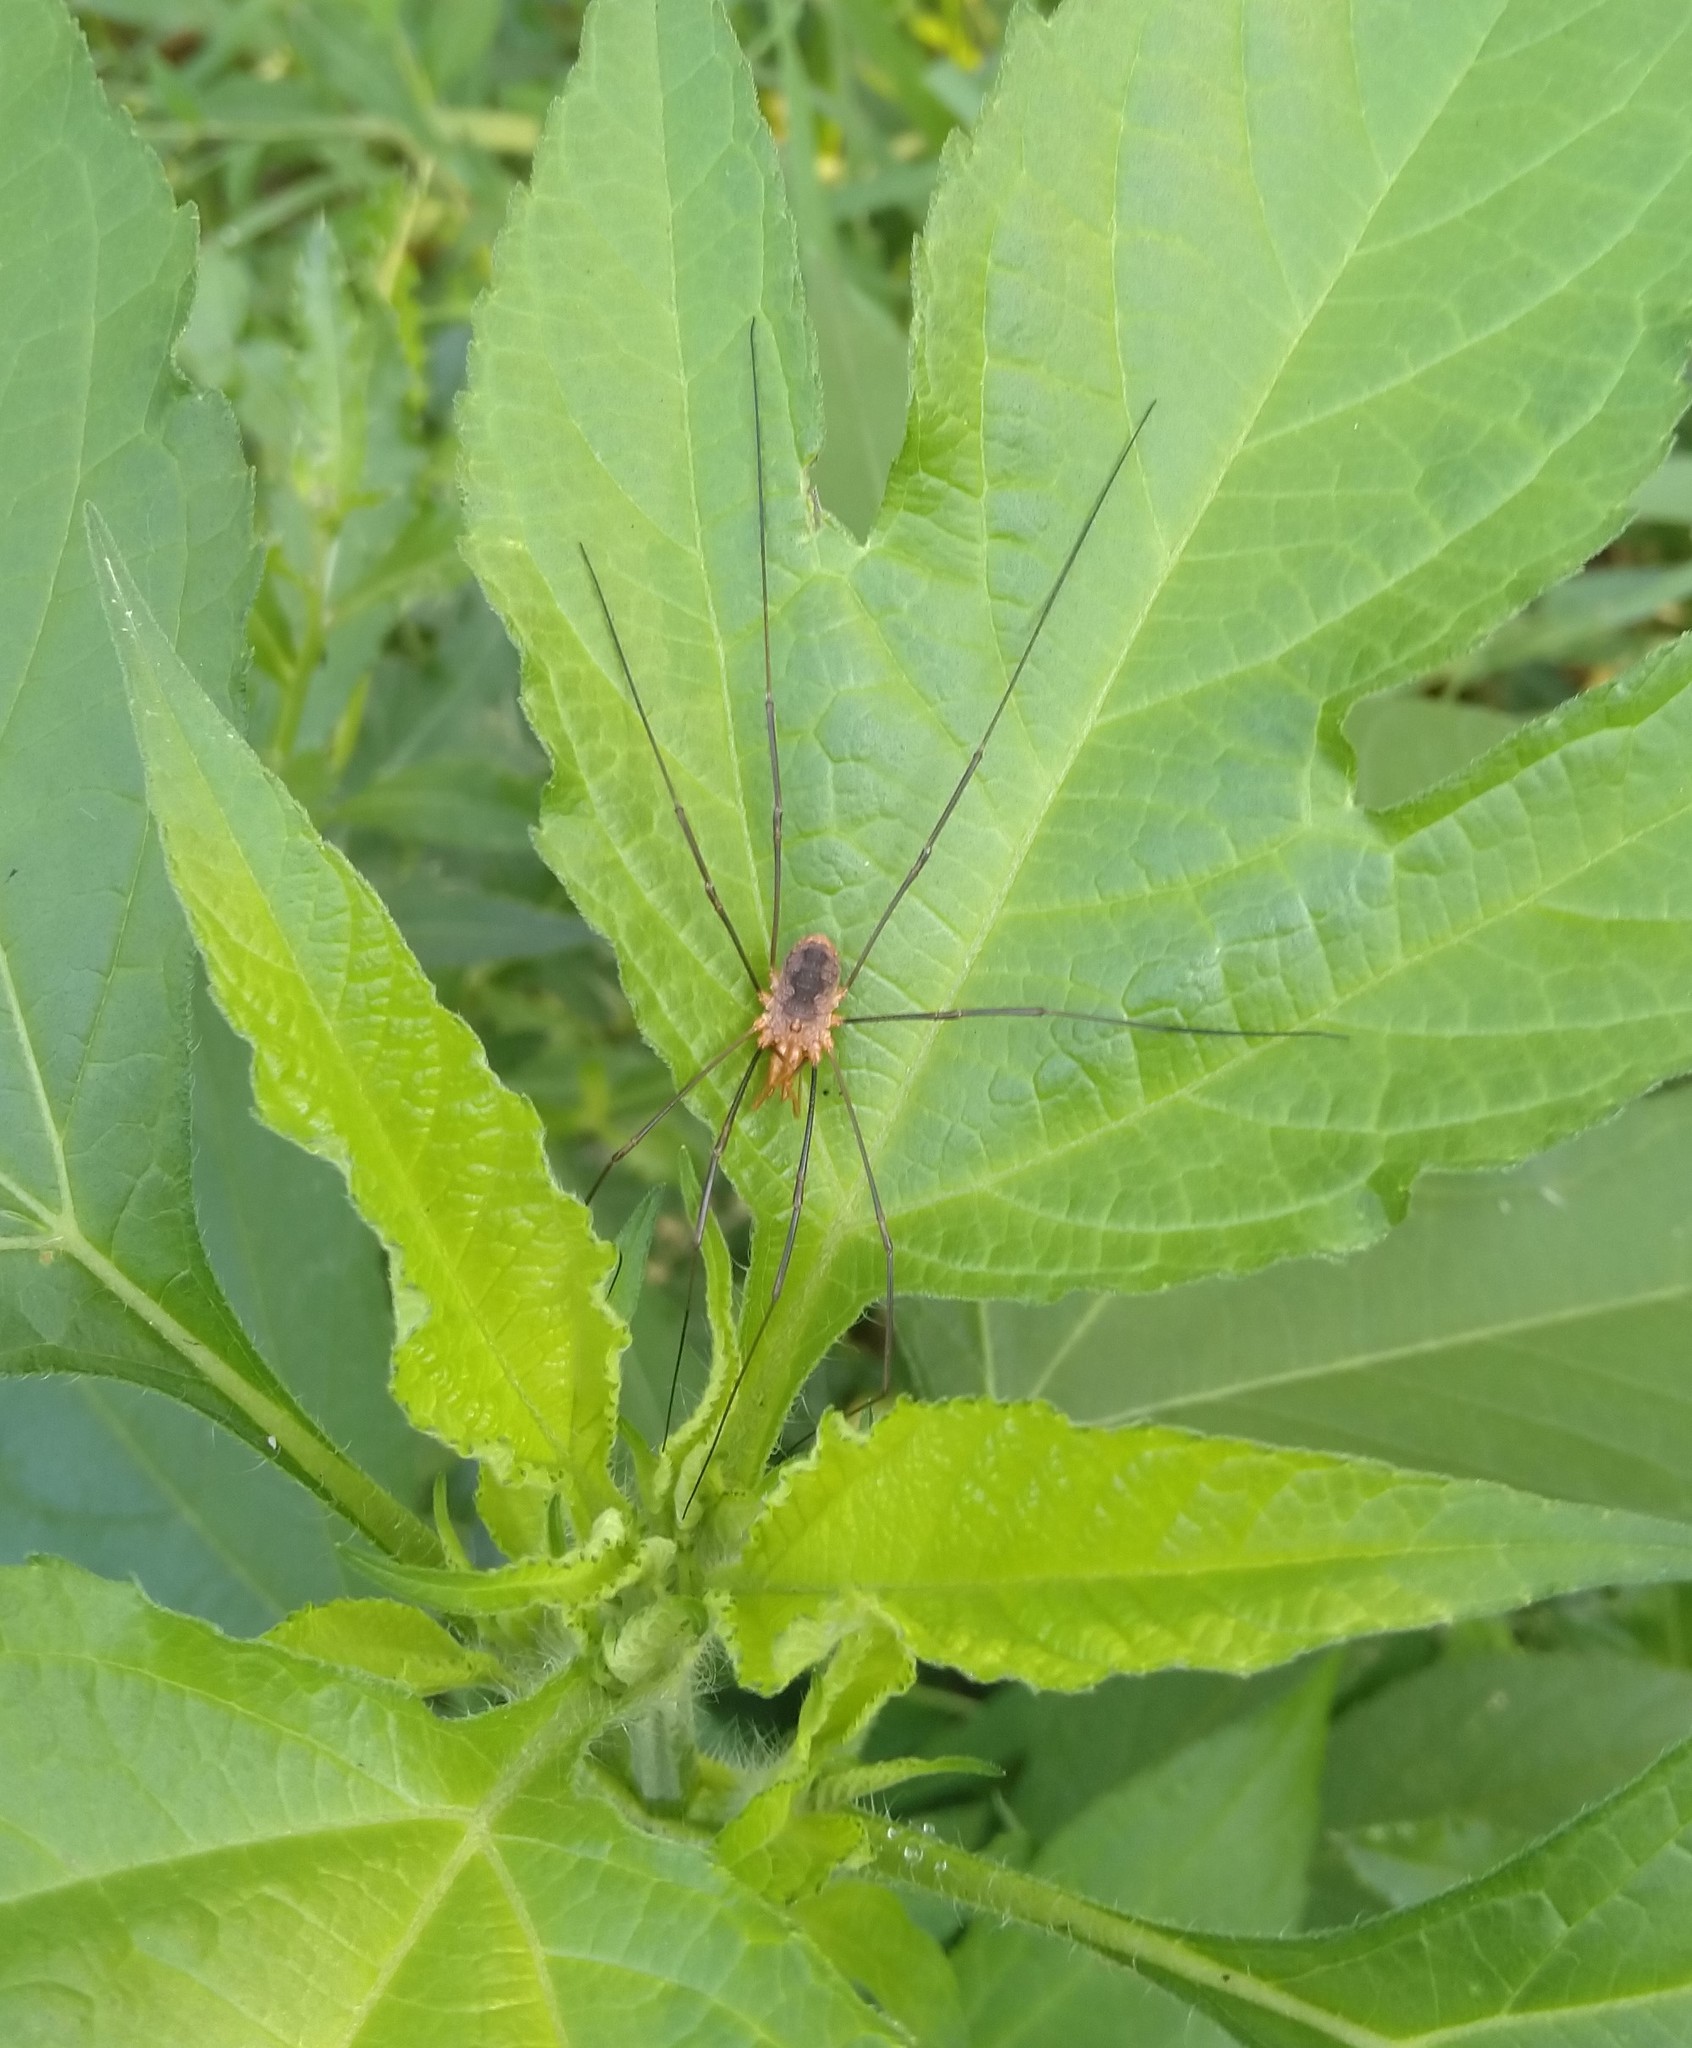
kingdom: Animalia
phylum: Arthropoda
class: Arachnida
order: Opiliones
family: Phalangiidae
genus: Phalangium
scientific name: Phalangium opilio
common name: Daddy longleg
